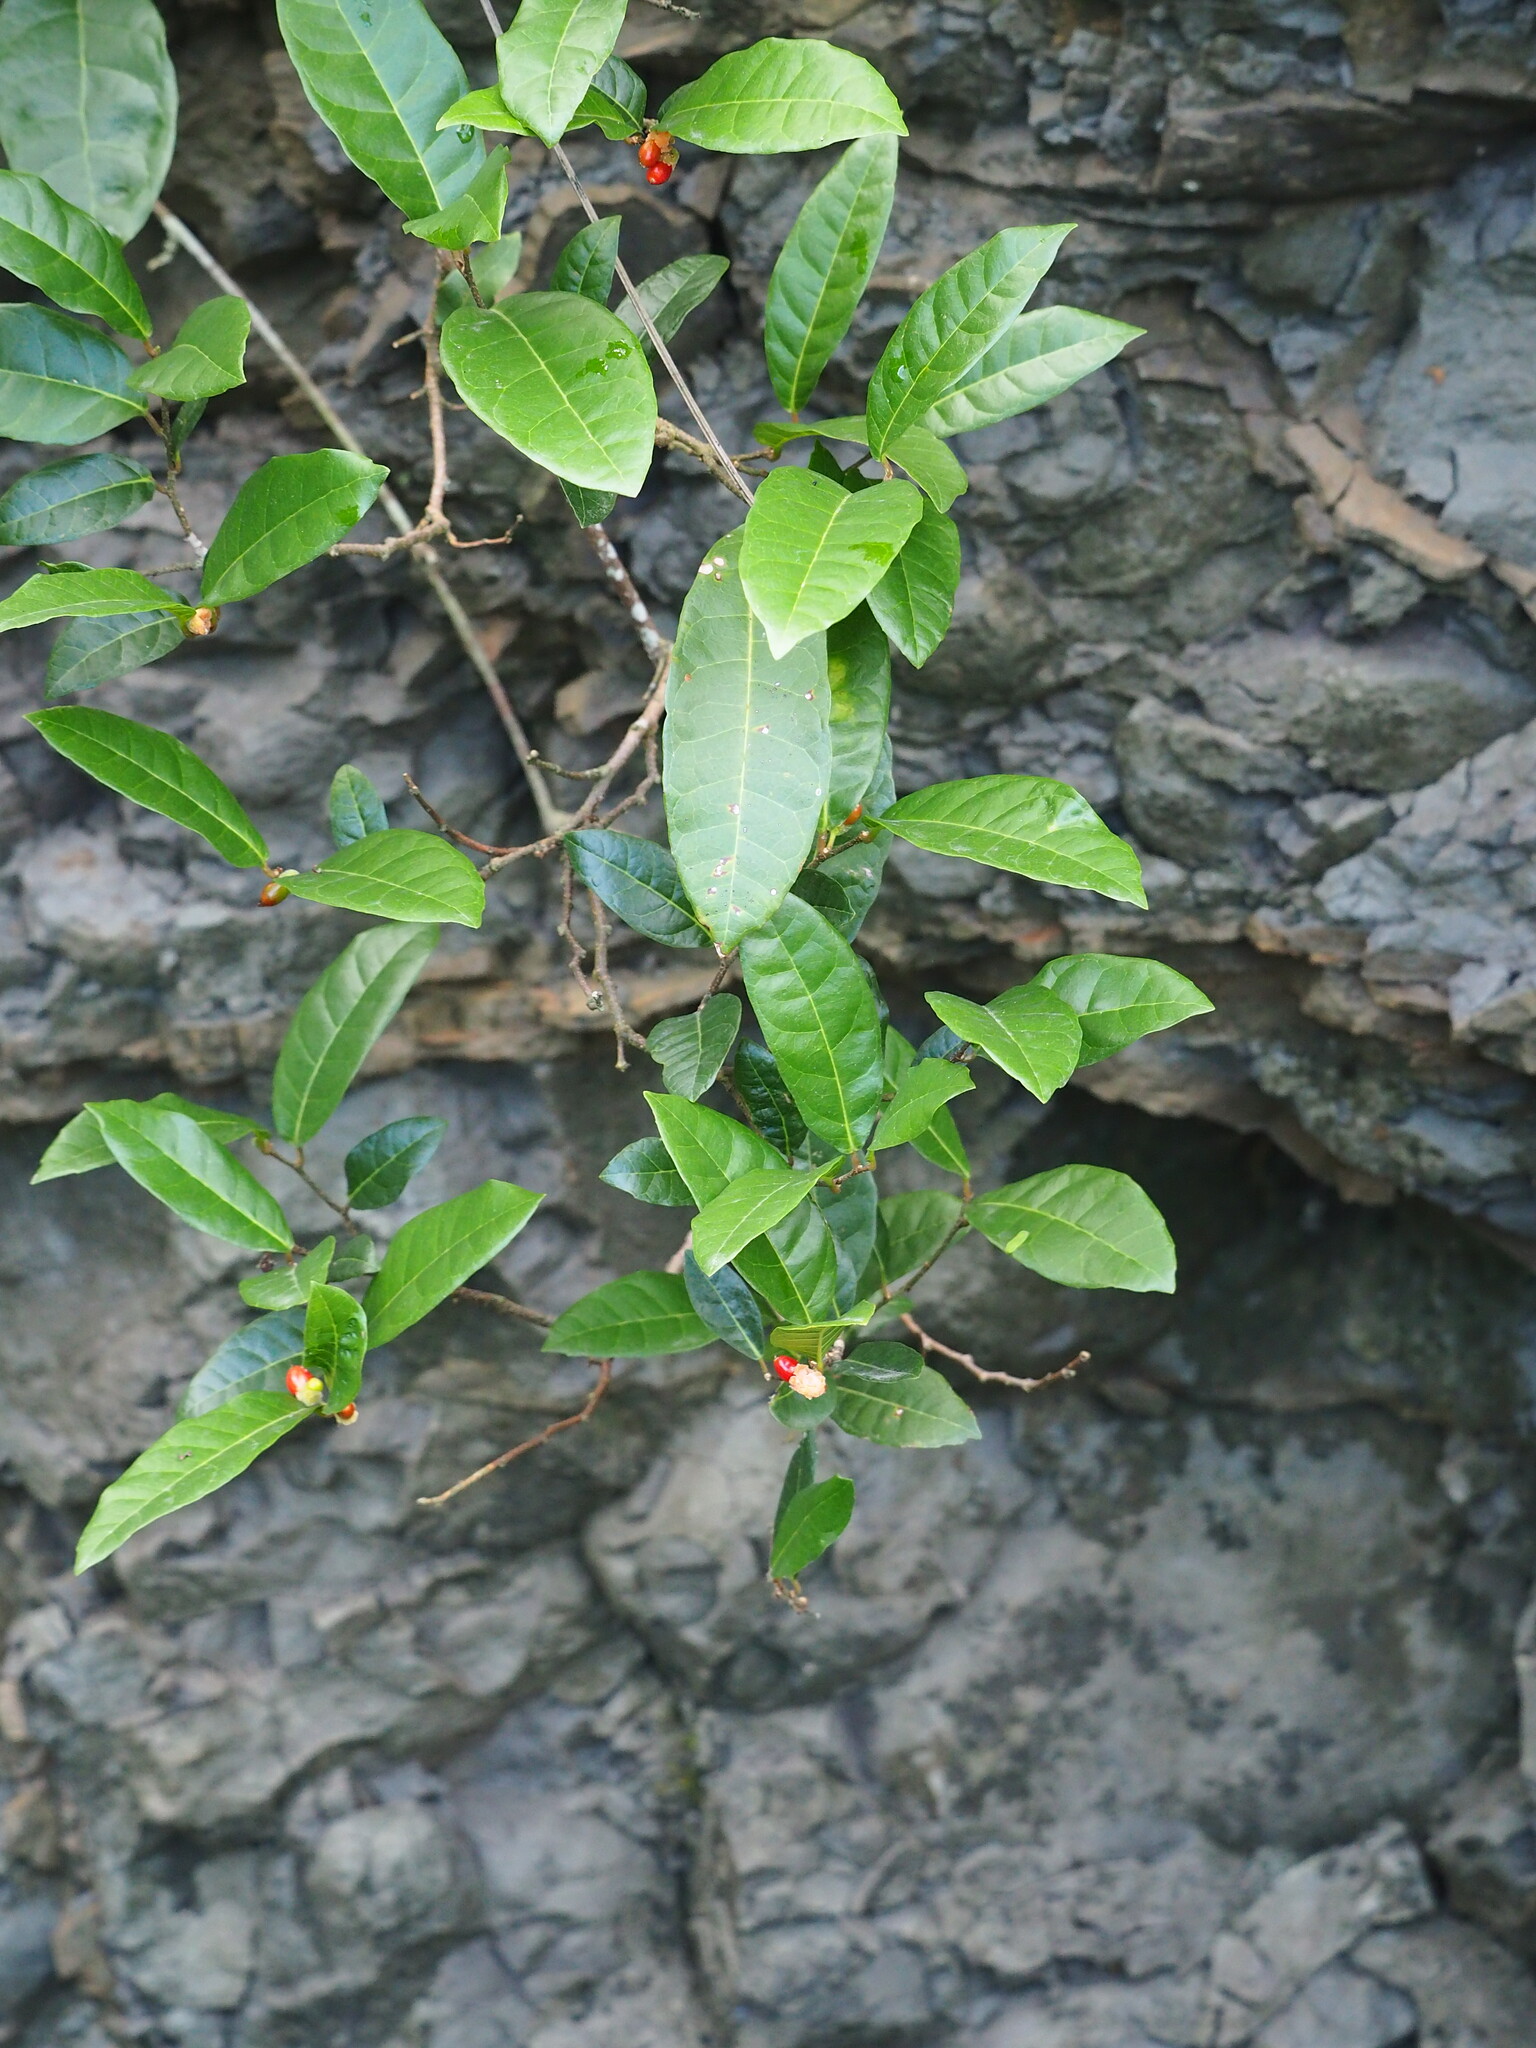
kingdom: Plantae
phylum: Tracheophyta
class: Magnoliopsida
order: Rosales
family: Moraceae
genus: Malaisia
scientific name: Malaisia scandens
